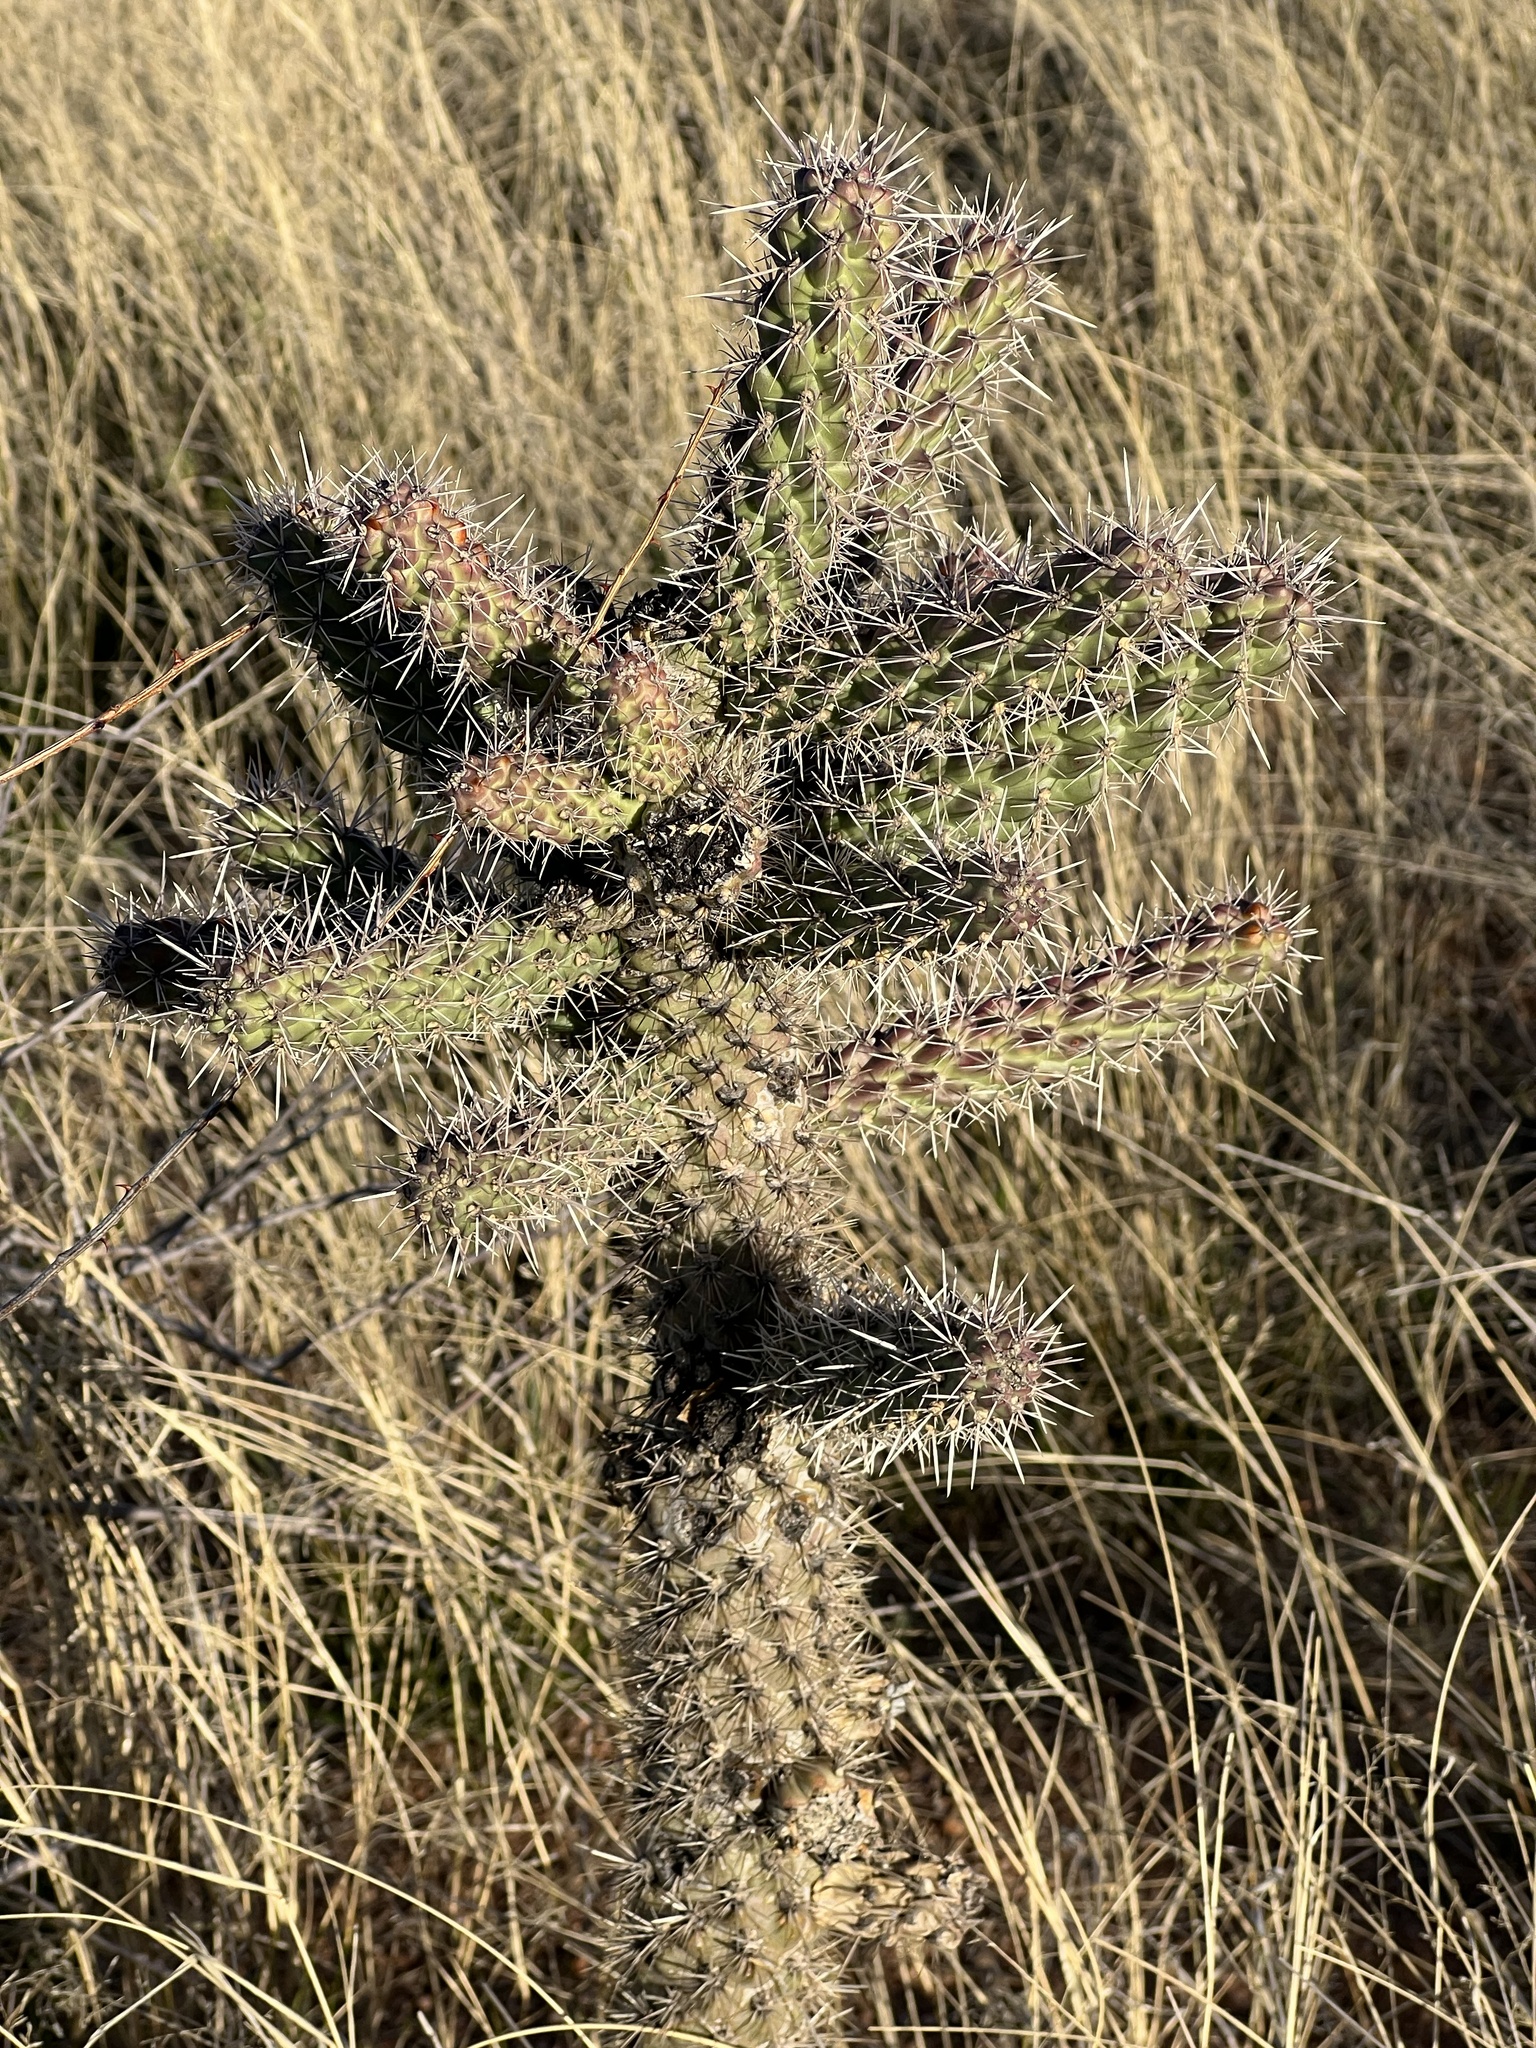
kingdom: Plantae
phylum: Tracheophyta
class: Magnoliopsida
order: Caryophyllales
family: Cactaceae
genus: Cylindropuntia
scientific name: Cylindropuntia imbricata
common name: Candelabrum cactus
